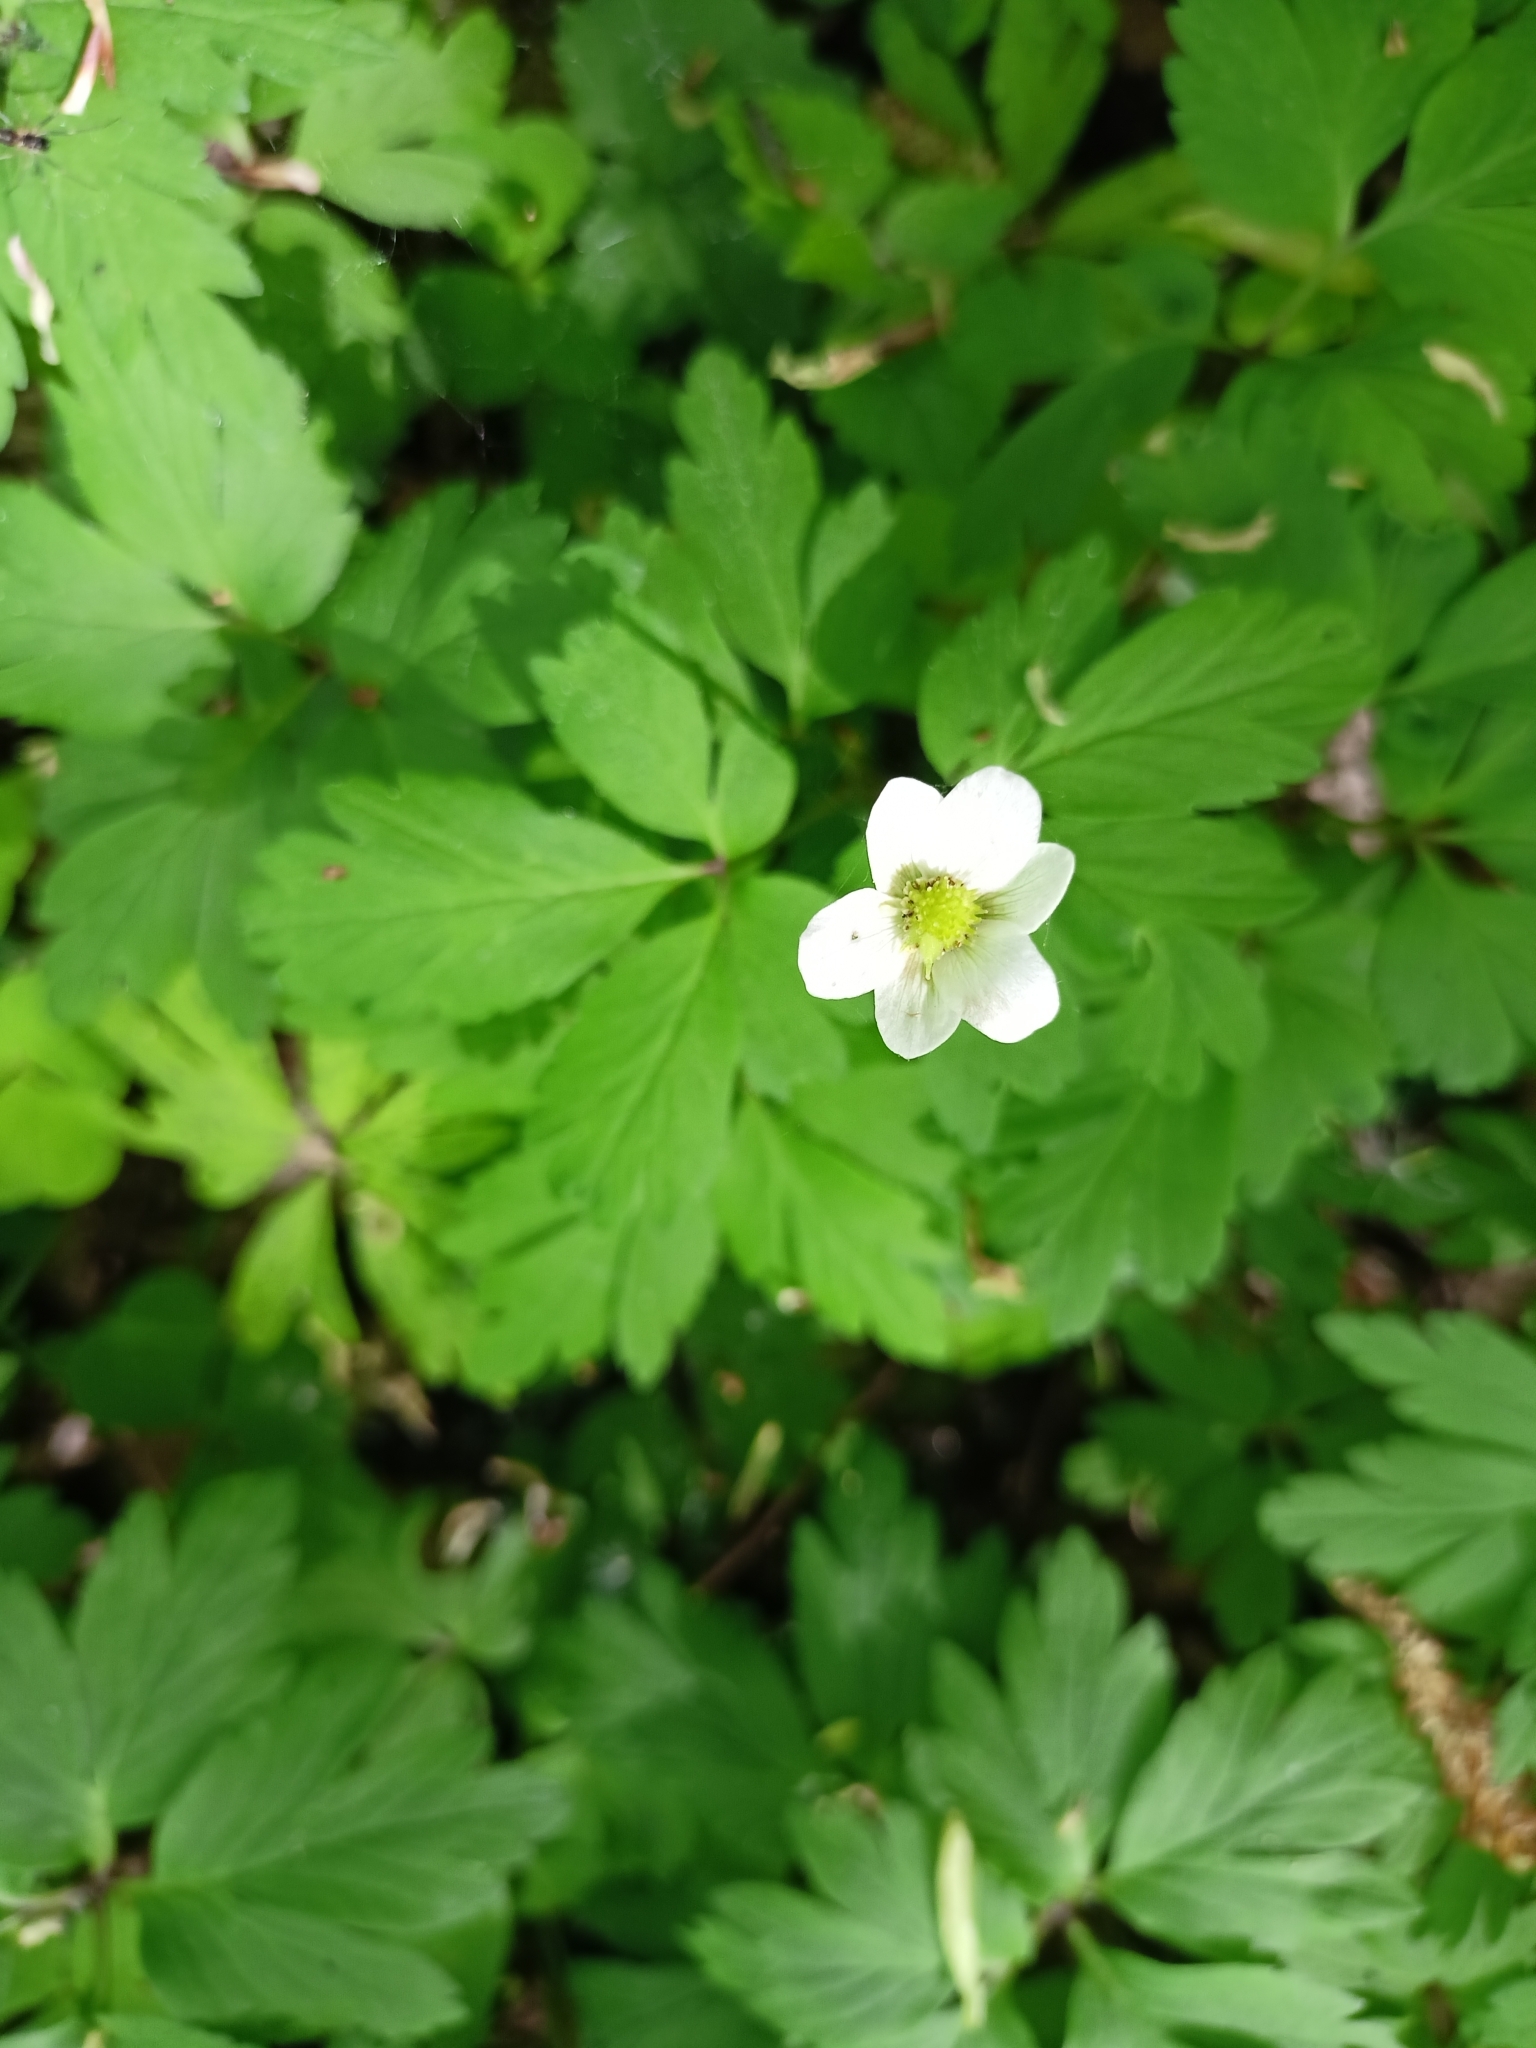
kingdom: Plantae
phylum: Tracheophyta
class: Magnoliopsida
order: Ranunculales
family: Ranunculaceae
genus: Anemone
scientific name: Anemone nemorosa
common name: Wood anemone
